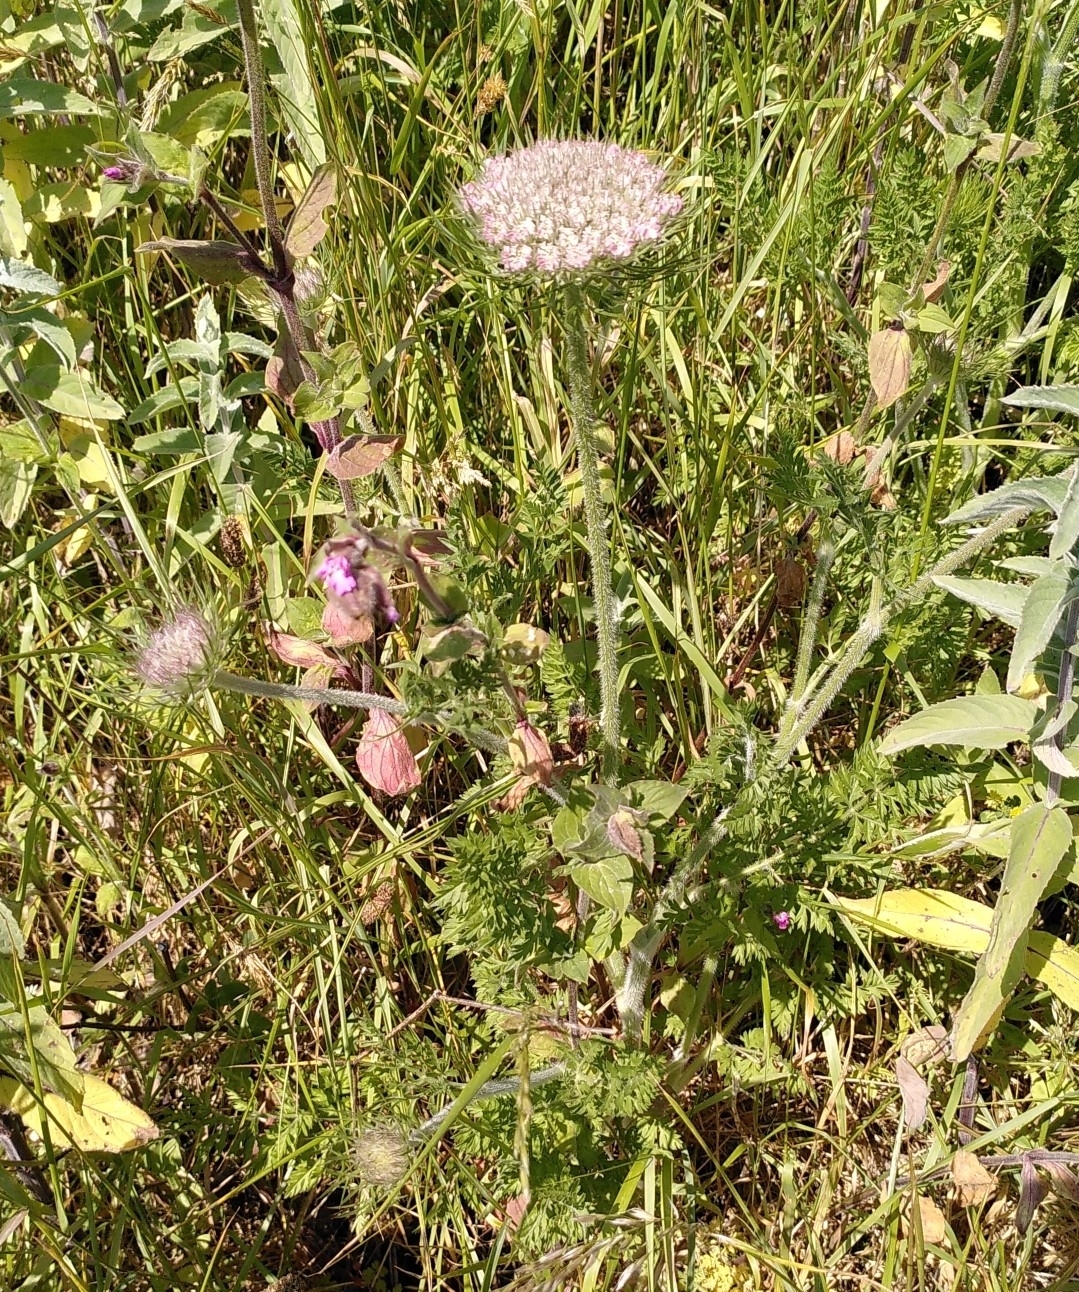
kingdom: Plantae
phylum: Tracheophyta
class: Magnoliopsida
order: Apiales
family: Apiaceae
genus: Daucus
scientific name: Daucus carota
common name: Wild carrot
